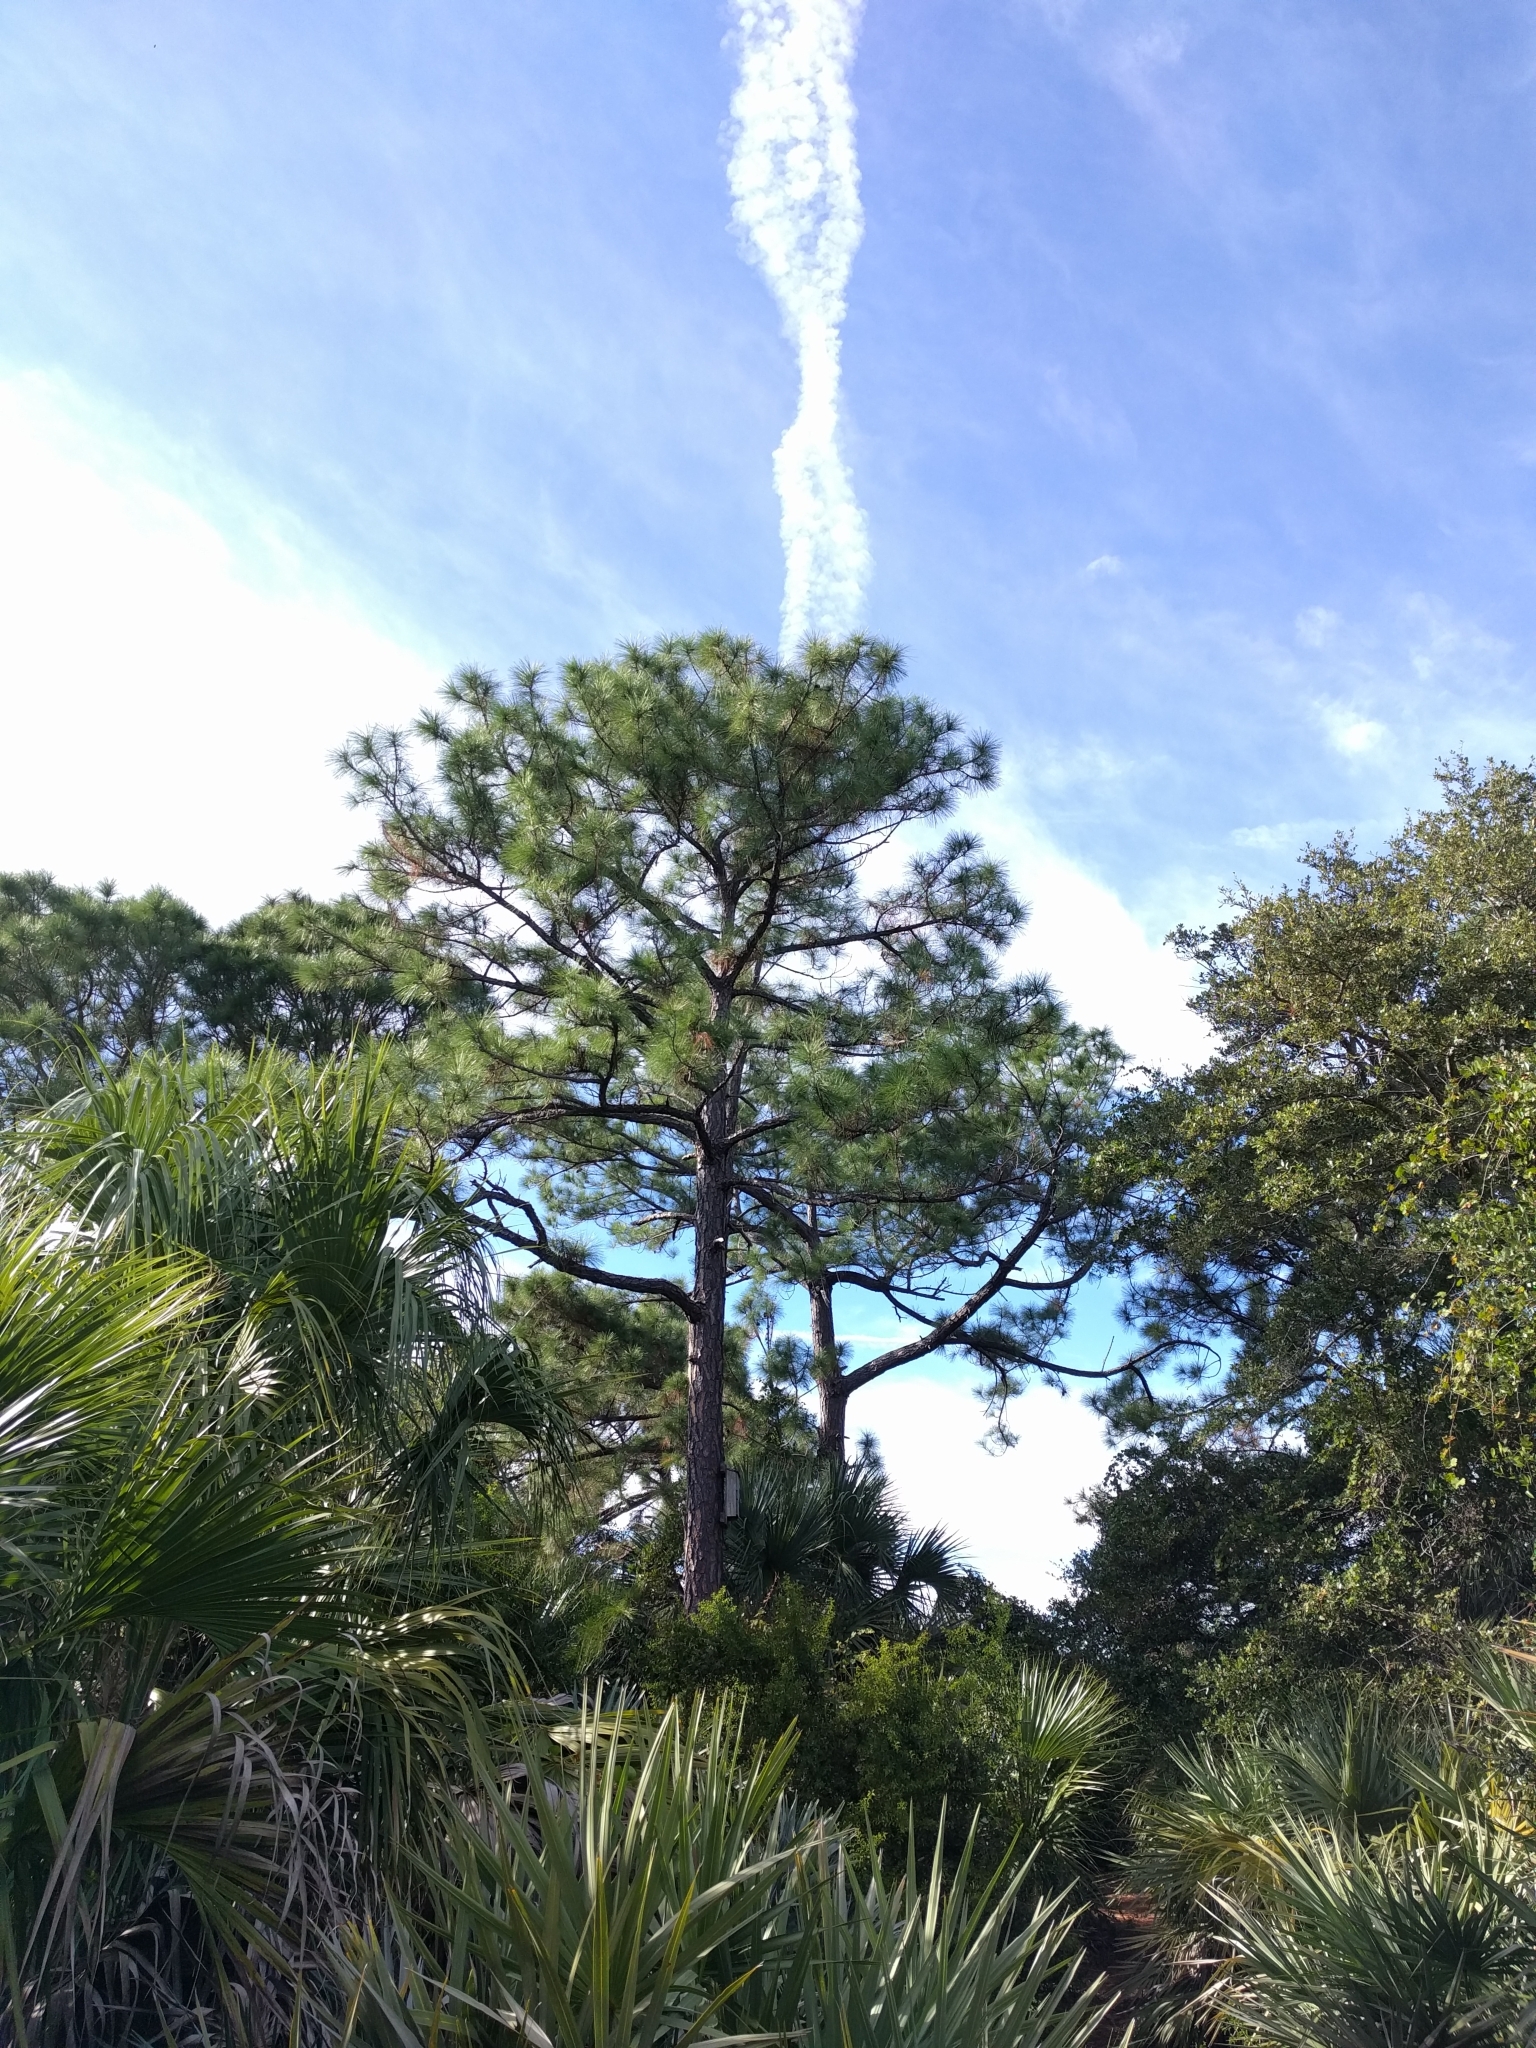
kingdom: Plantae
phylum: Tracheophyta
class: Pinopsida
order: Pinales
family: Pinaceae
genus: Pinus
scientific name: Pinus elliottii
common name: Slash pine
